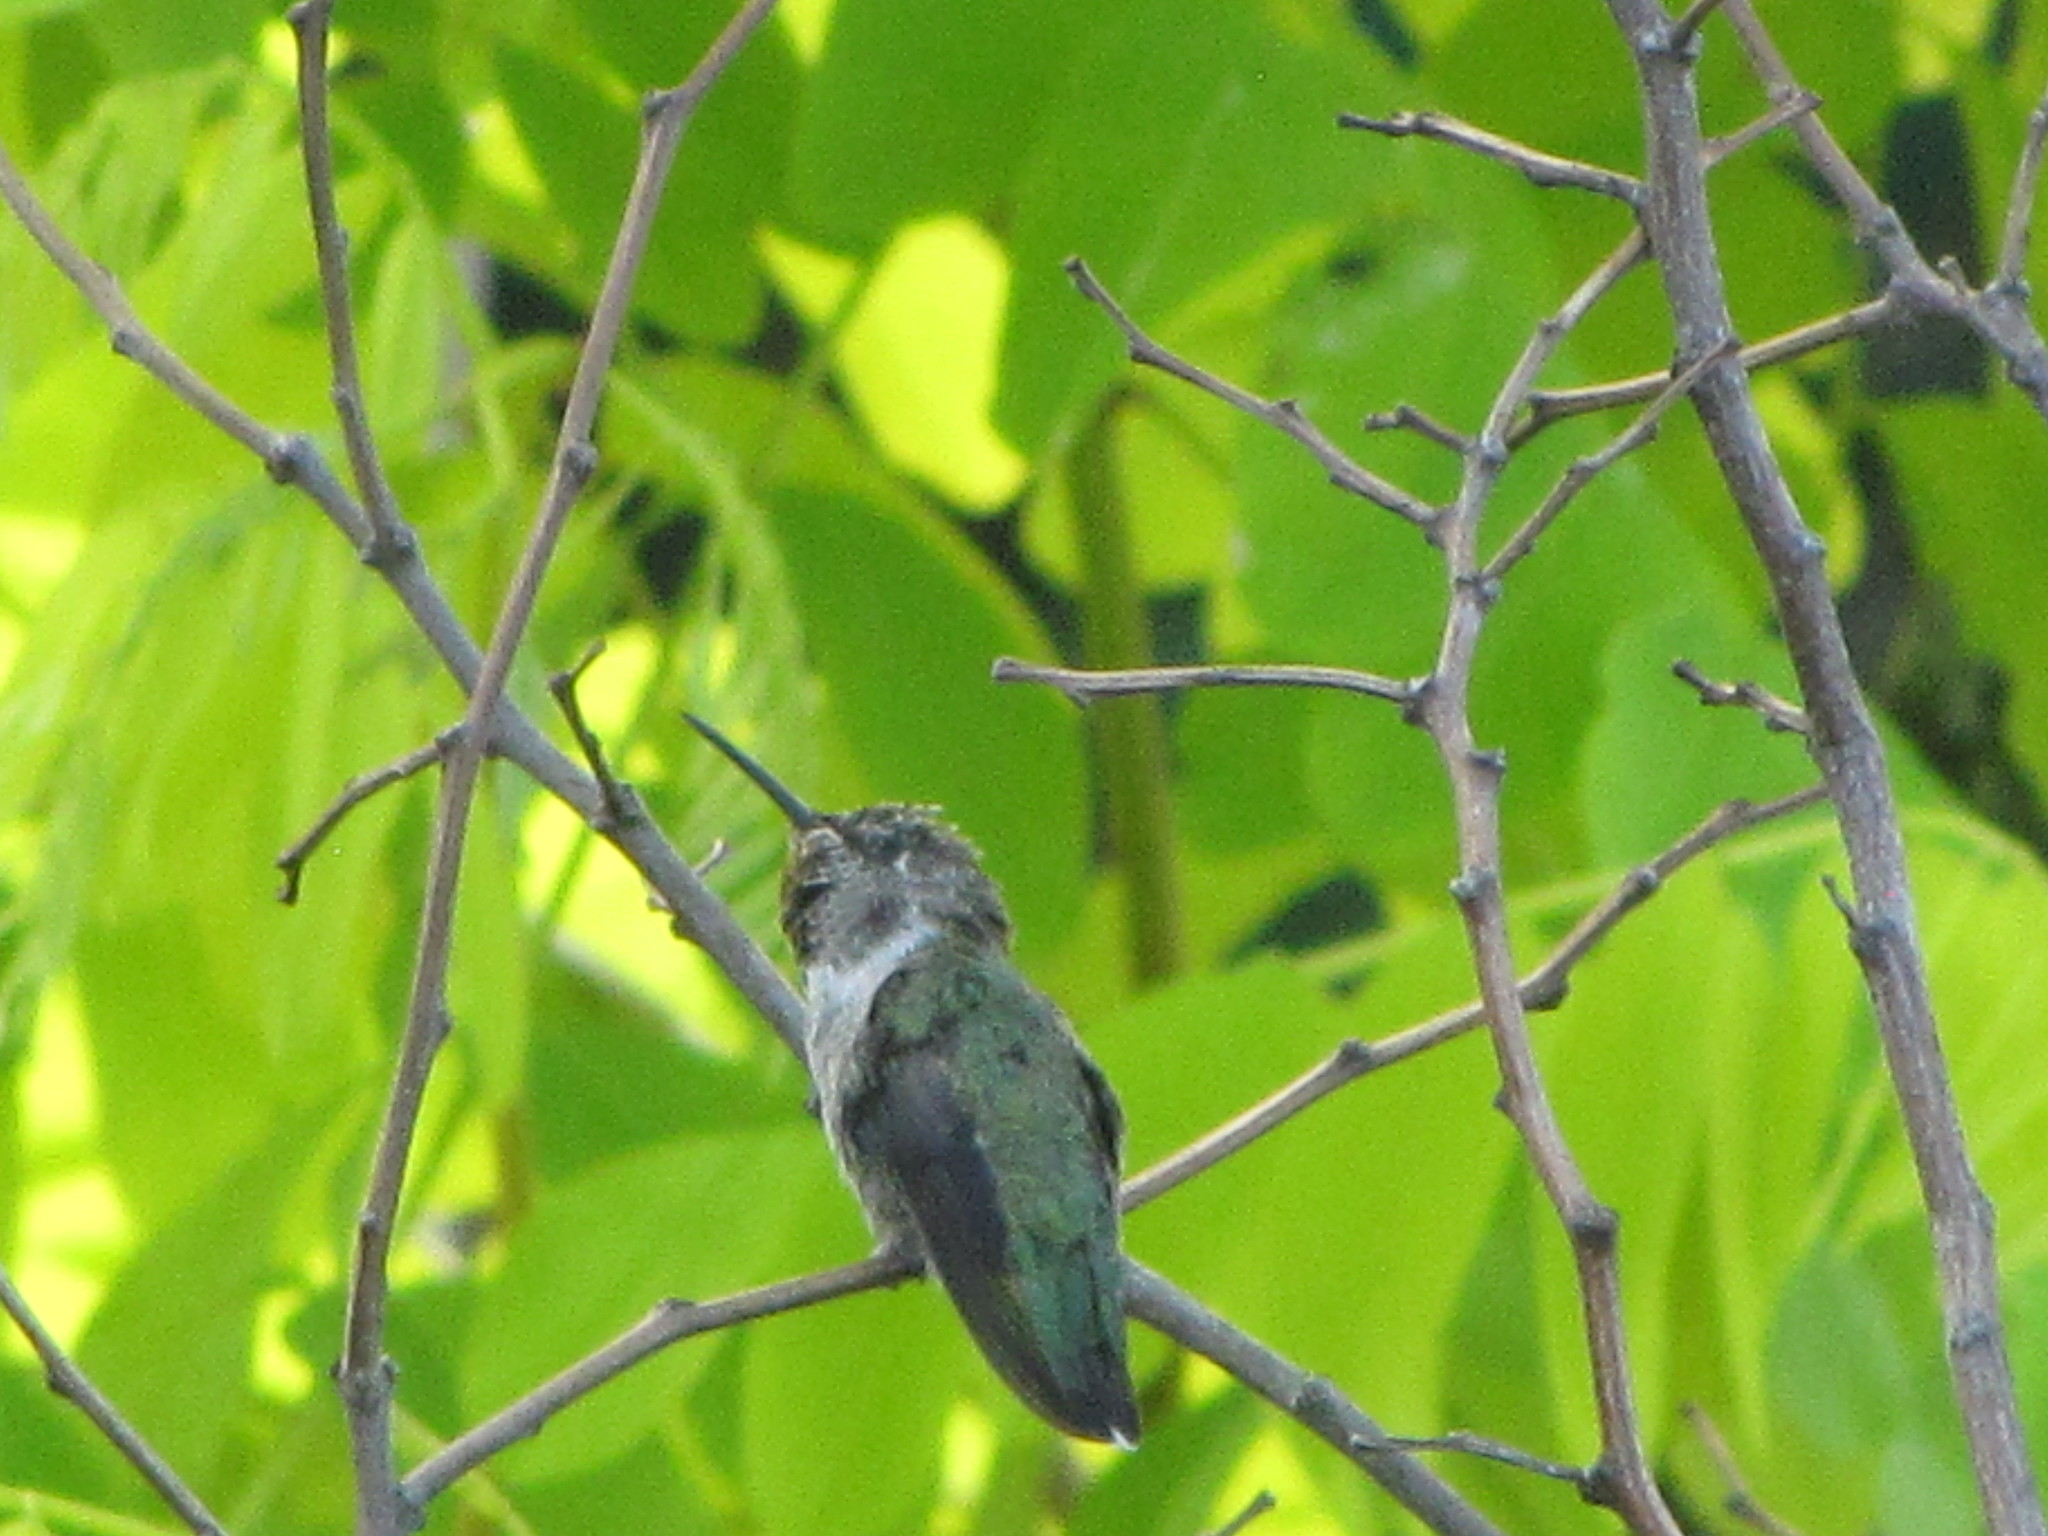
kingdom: Animalia
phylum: Chordata
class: Aves
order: Apodiformes
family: Trochilidae
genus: Calypte
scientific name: Calypte anna
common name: Anna's hummingbird
